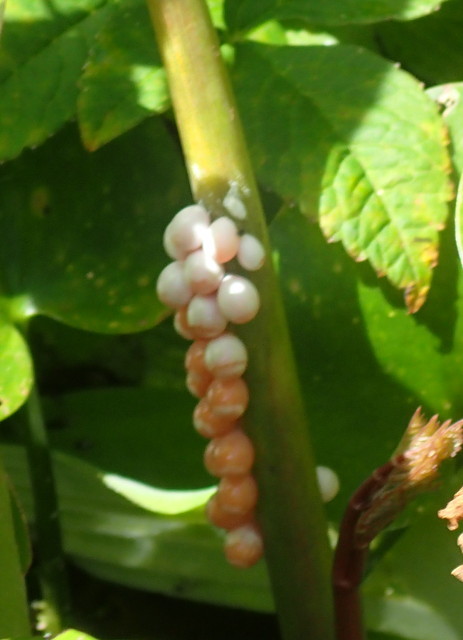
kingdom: Animalia
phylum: Mollusca
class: Gastropoda
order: Architaenioglossa
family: Ampullariidae
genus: Pomacea
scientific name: Pomacea paludosa
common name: Florida applesnail
